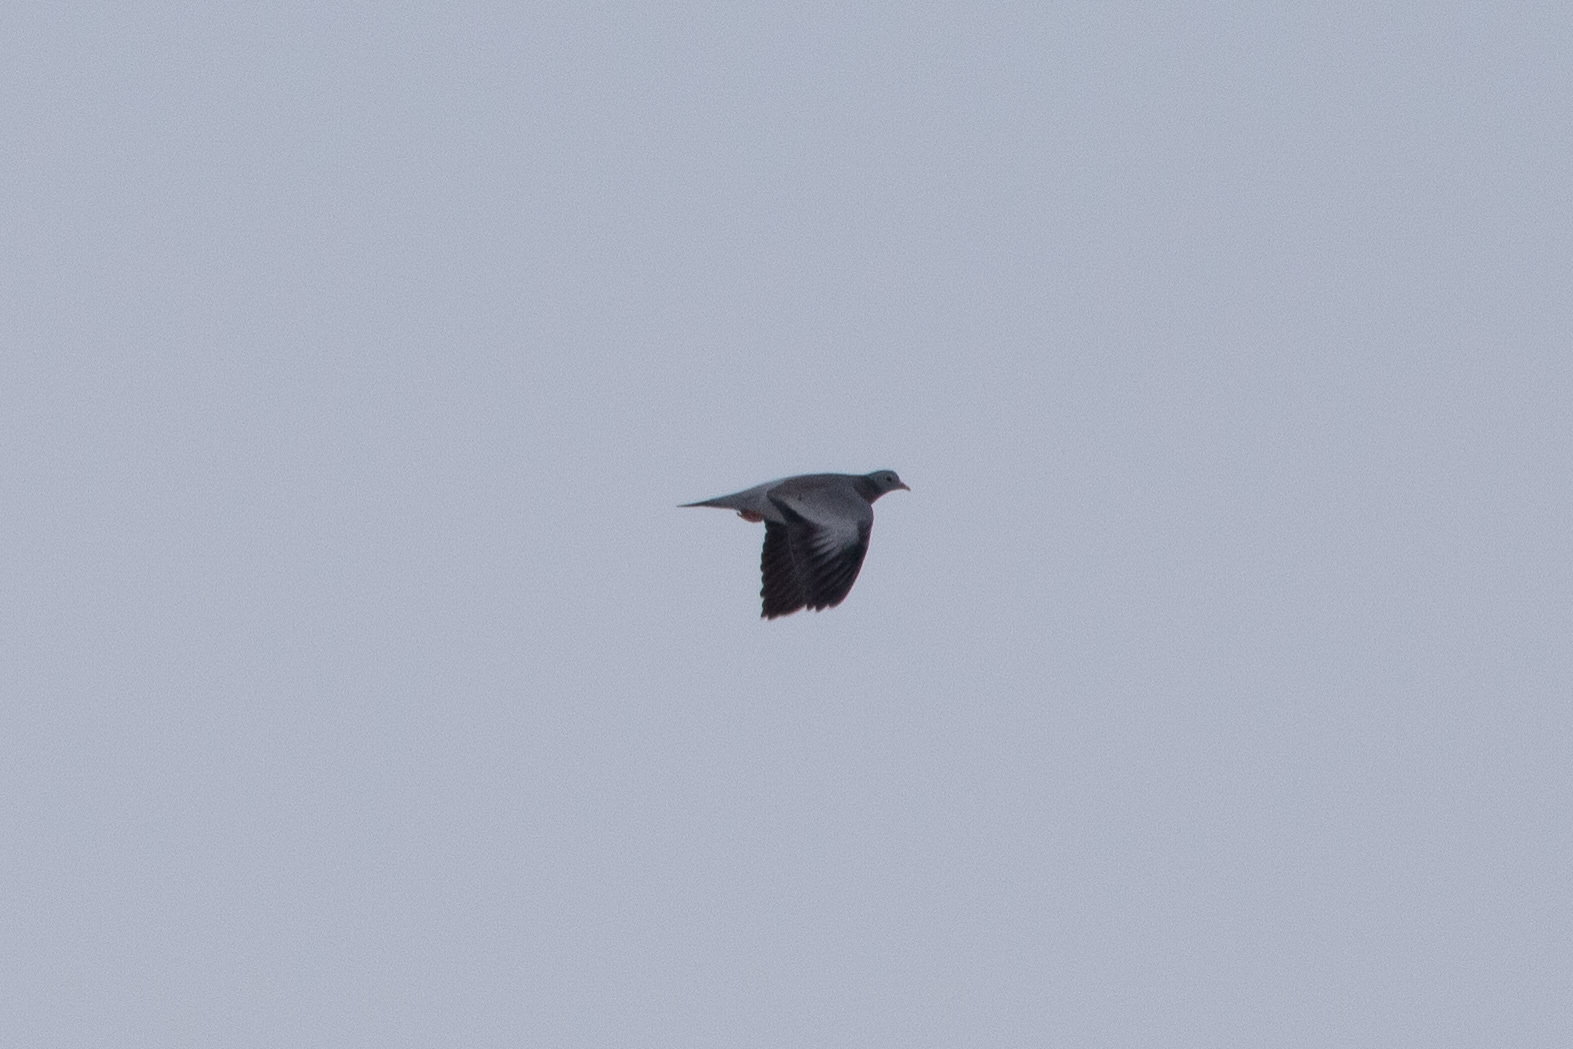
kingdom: Animalia
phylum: Chordata
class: Aves
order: Columbiformes
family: Columbidae
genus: Columba
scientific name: Columba oenas
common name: Stock dove
